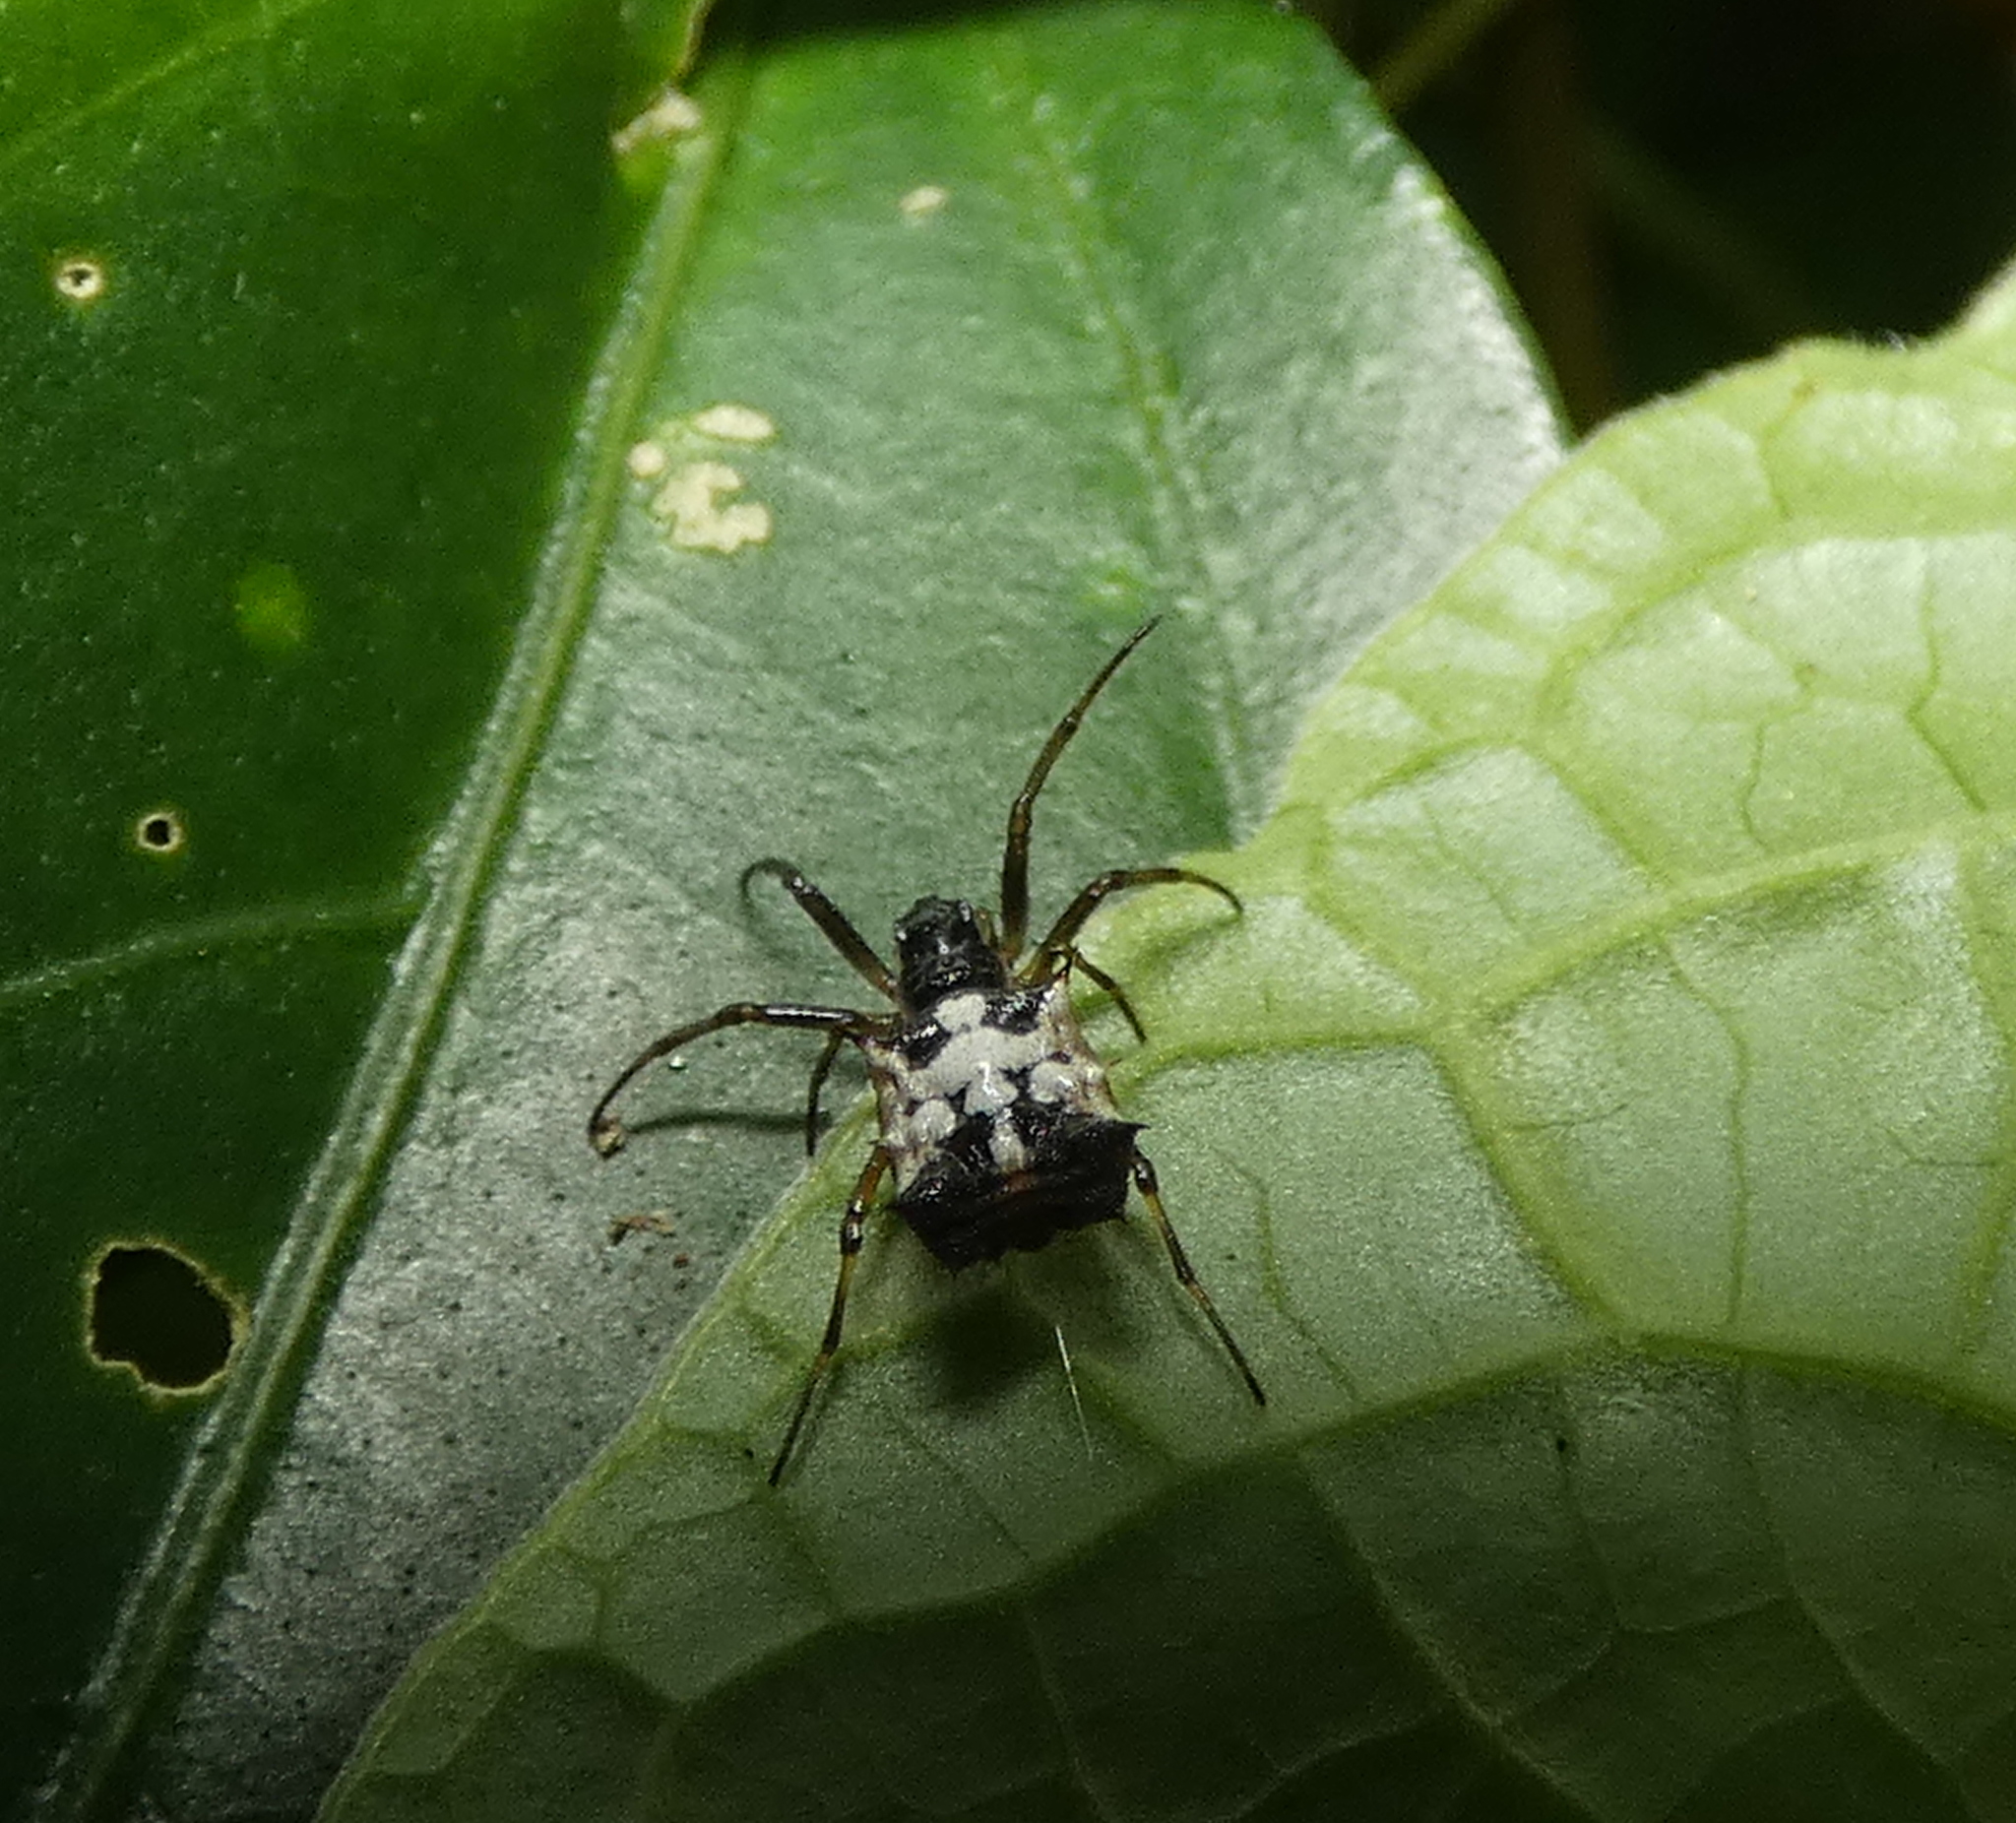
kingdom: Animalia
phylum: Arthropoda
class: Arachnida
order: Araneae
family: Araneidae
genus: Micrathena
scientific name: Micrathena picta
